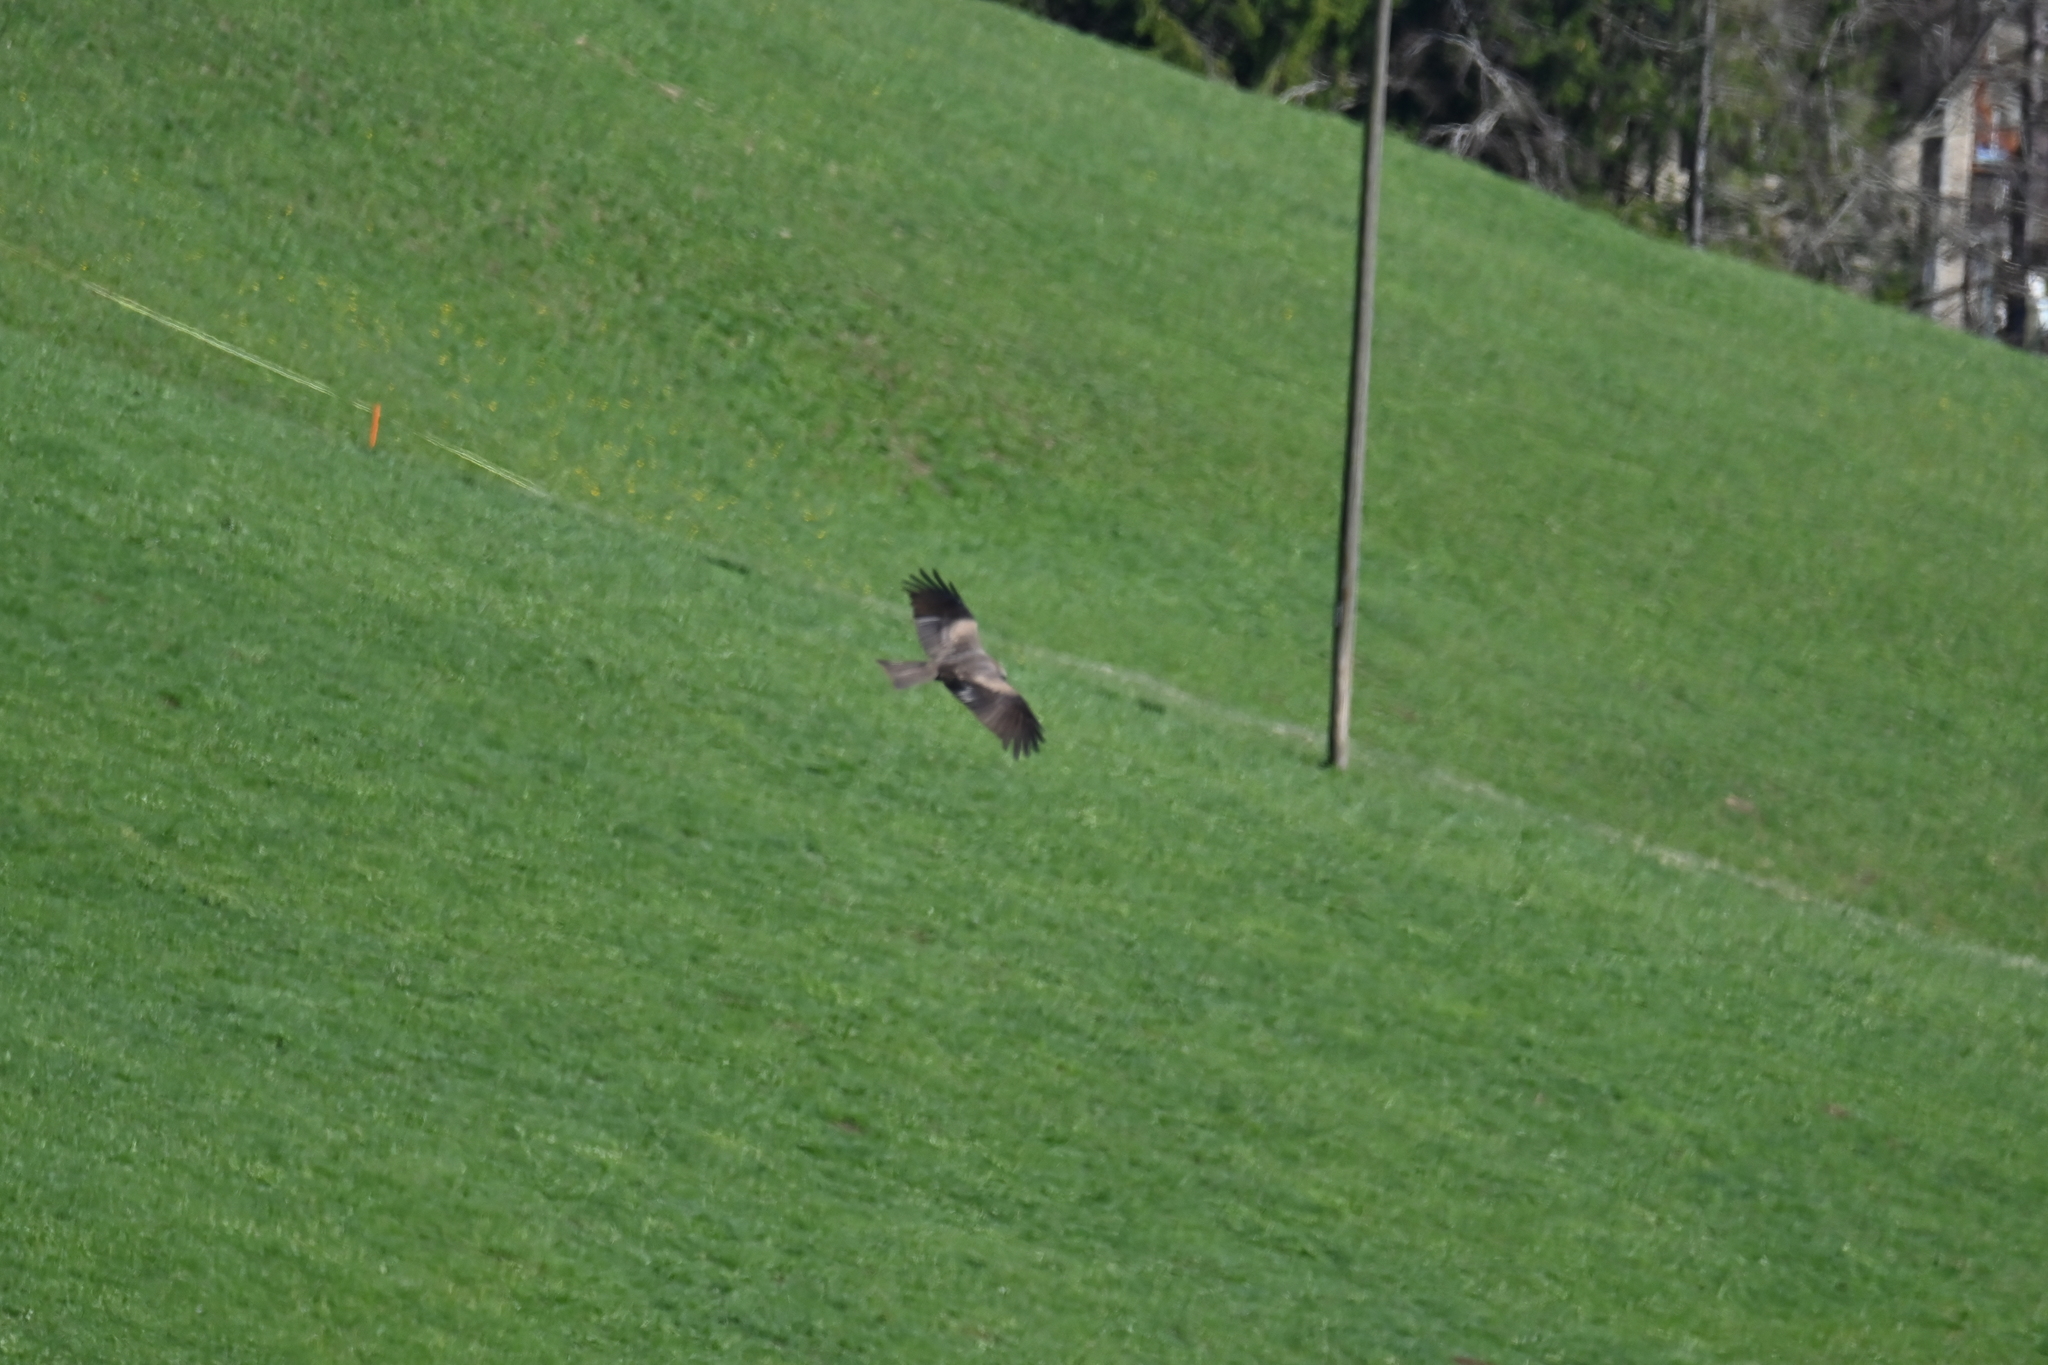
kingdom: Animalia
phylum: Chordata
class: Aves
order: Accipitriformes
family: Accipitridae
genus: Milvus
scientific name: Milvus migrans
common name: Black kite
